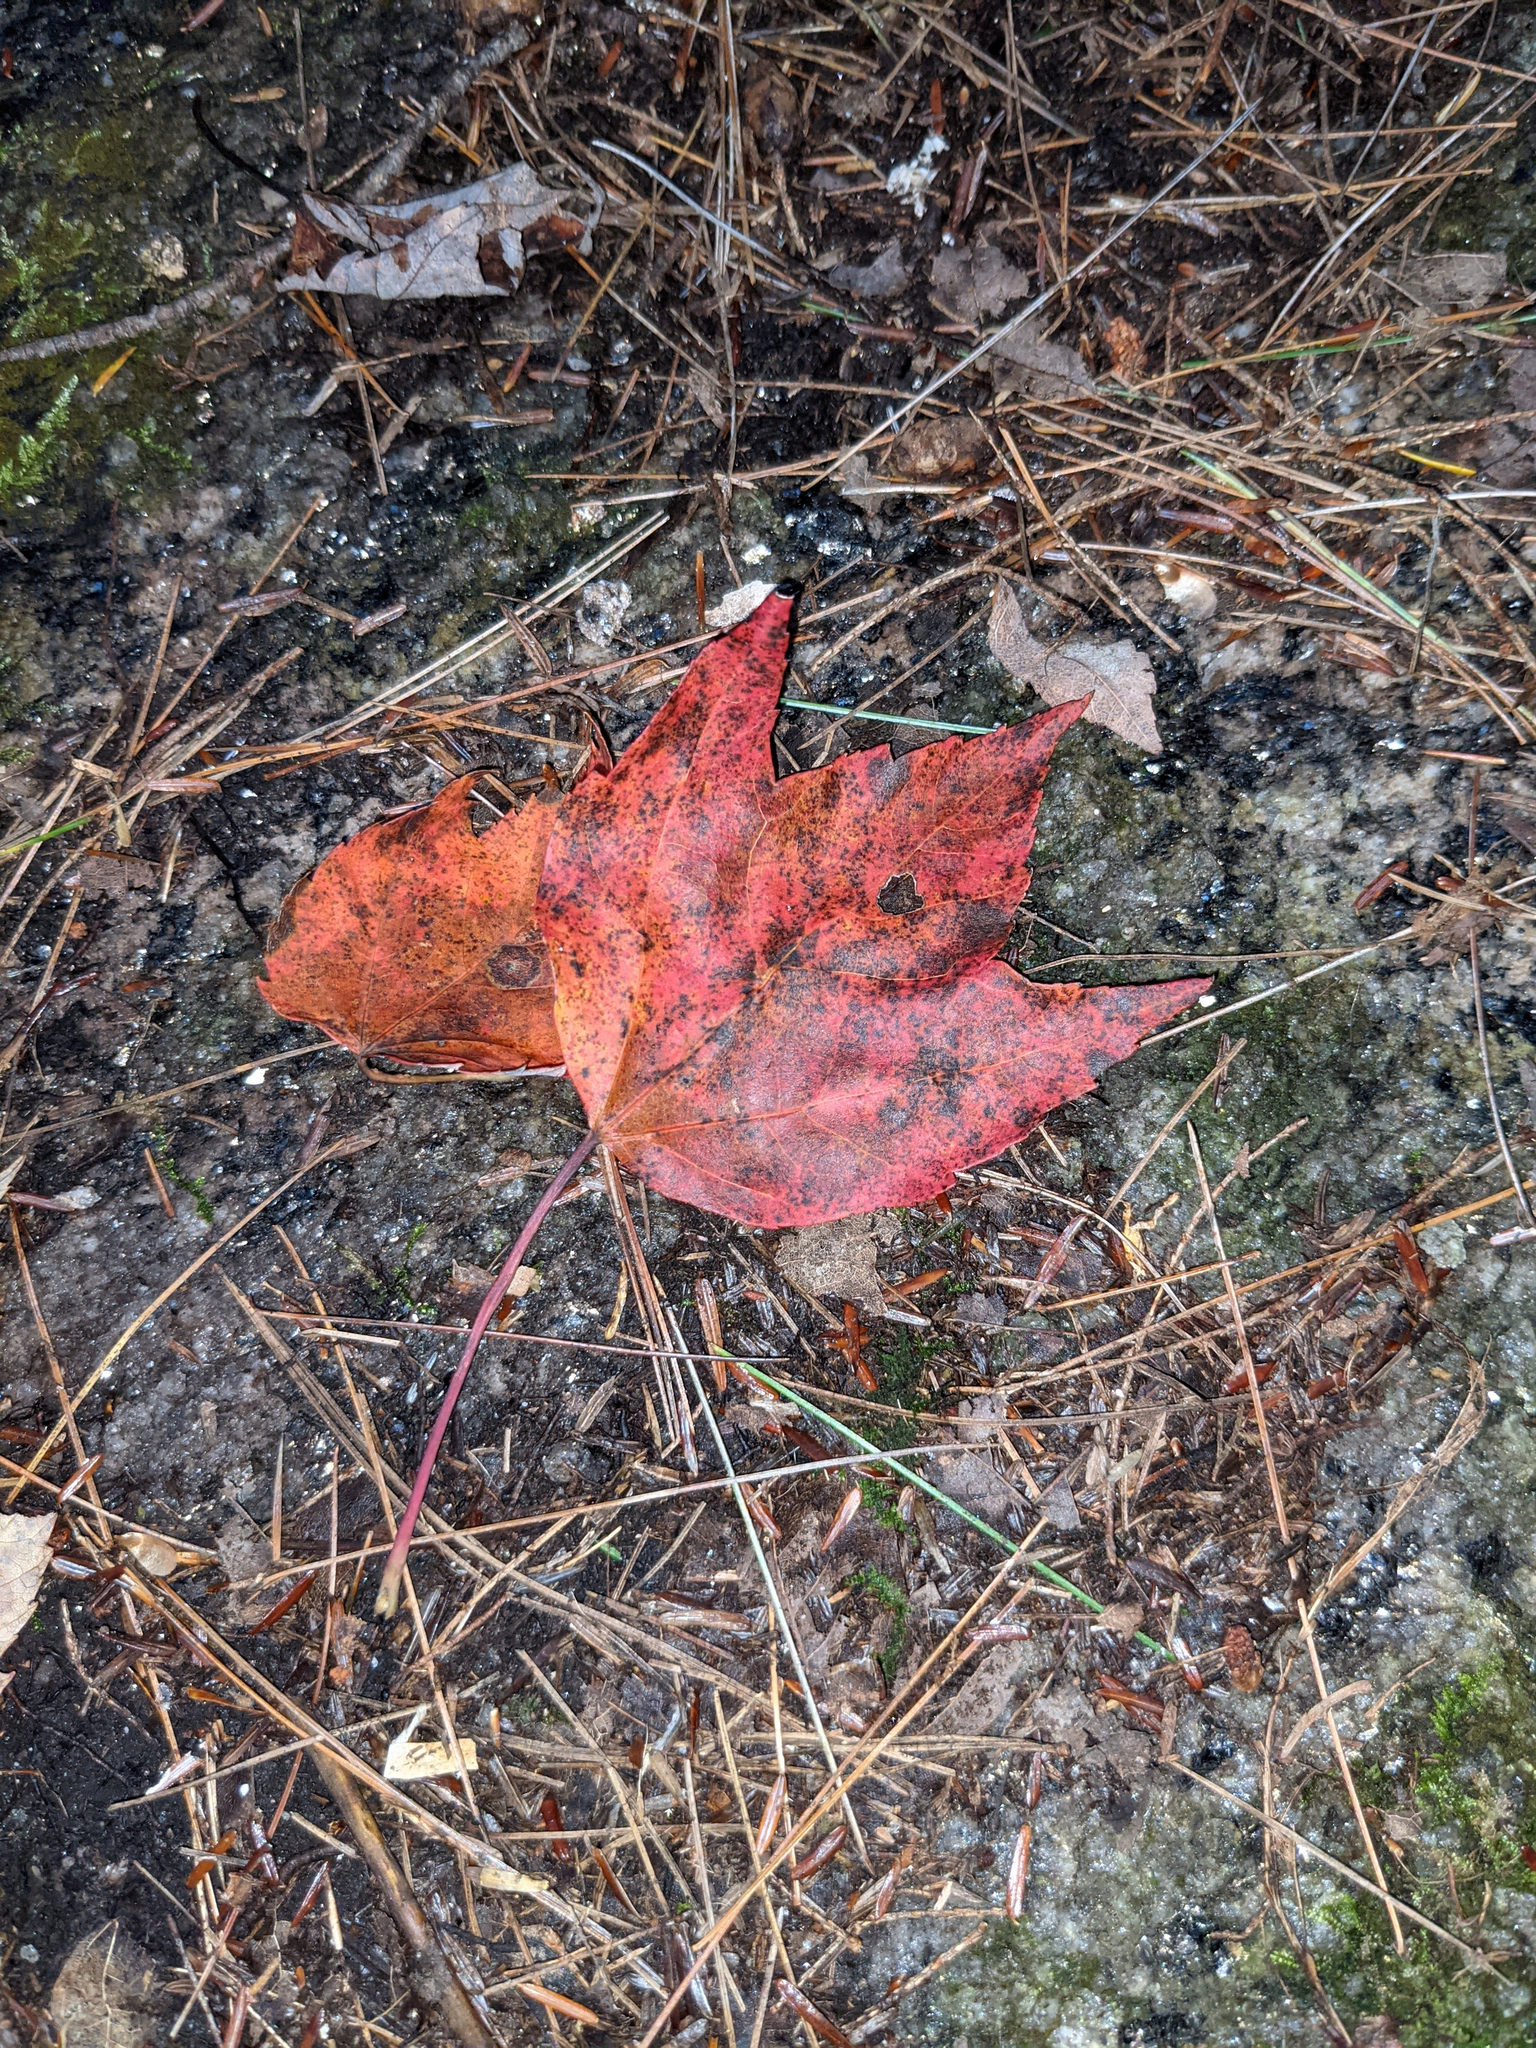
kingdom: Plantae
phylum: Tracheophyta
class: Magnoliopsida
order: Sapindales
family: Sapindaceae
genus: Acer
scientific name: Acer rubrum
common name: Red maple
